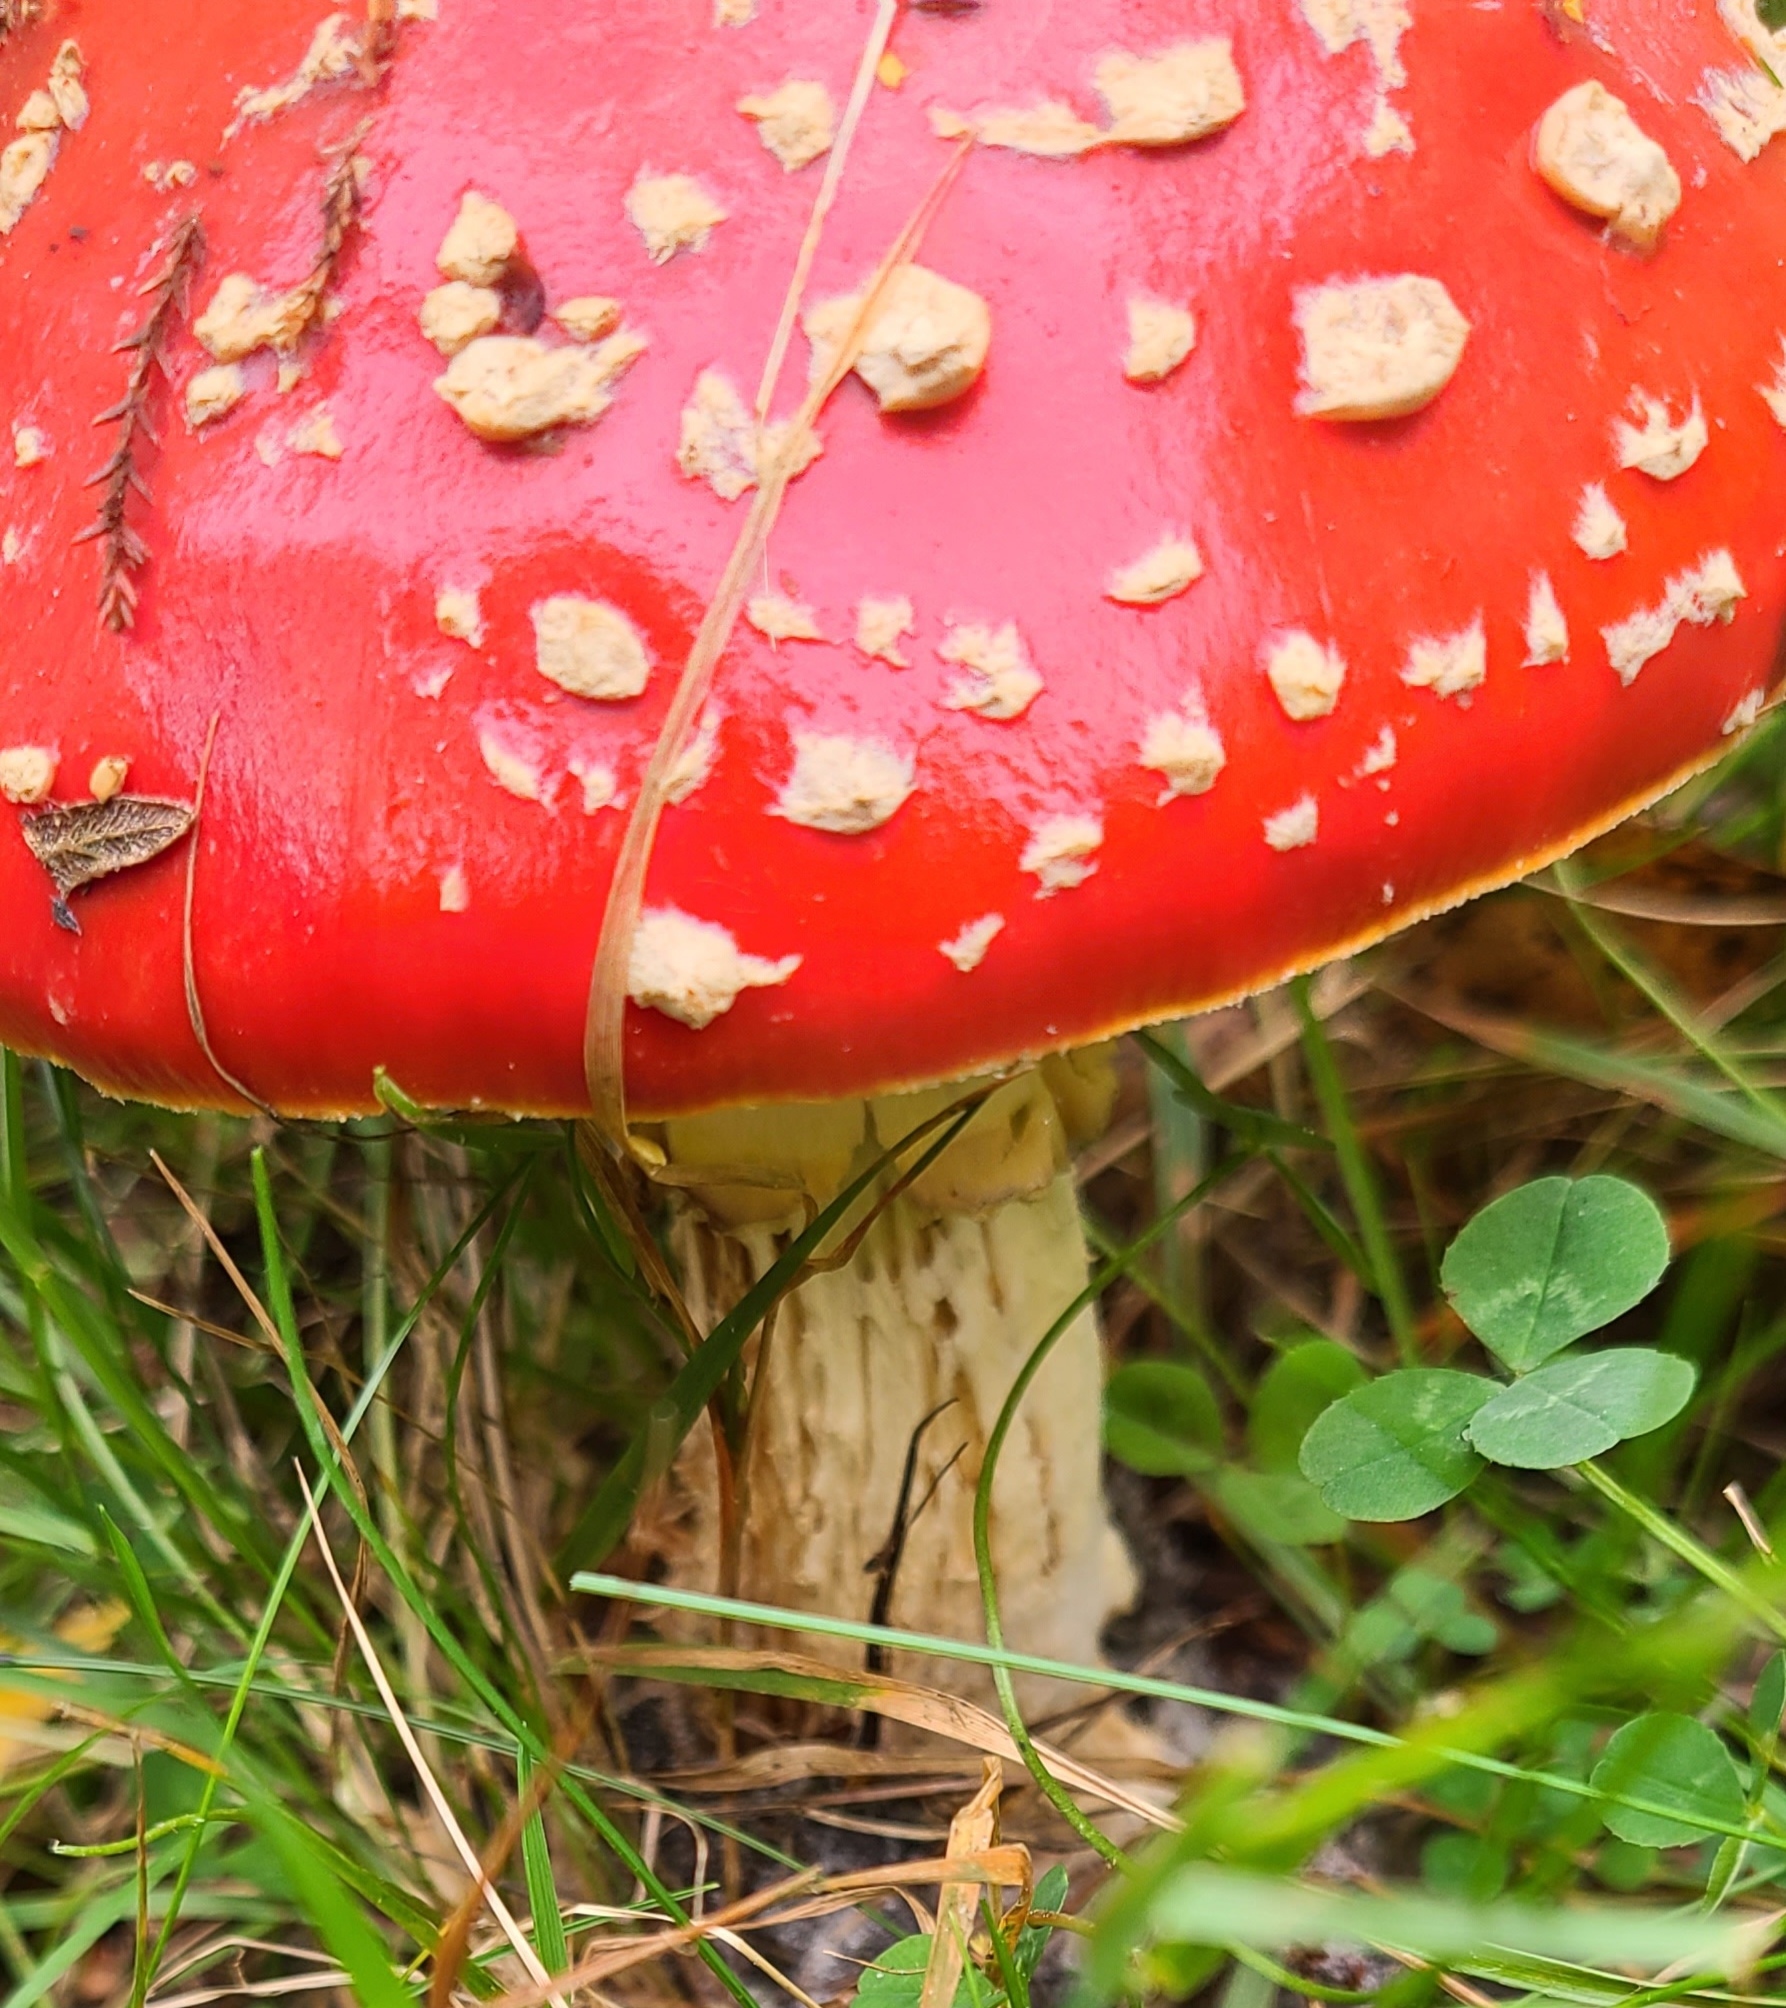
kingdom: Fungi
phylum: Basidiomycota
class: Agaricomycetes
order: Agaricales
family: Amanitaceae
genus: Amanita
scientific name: Amanita muscaria
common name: Fly agaric
